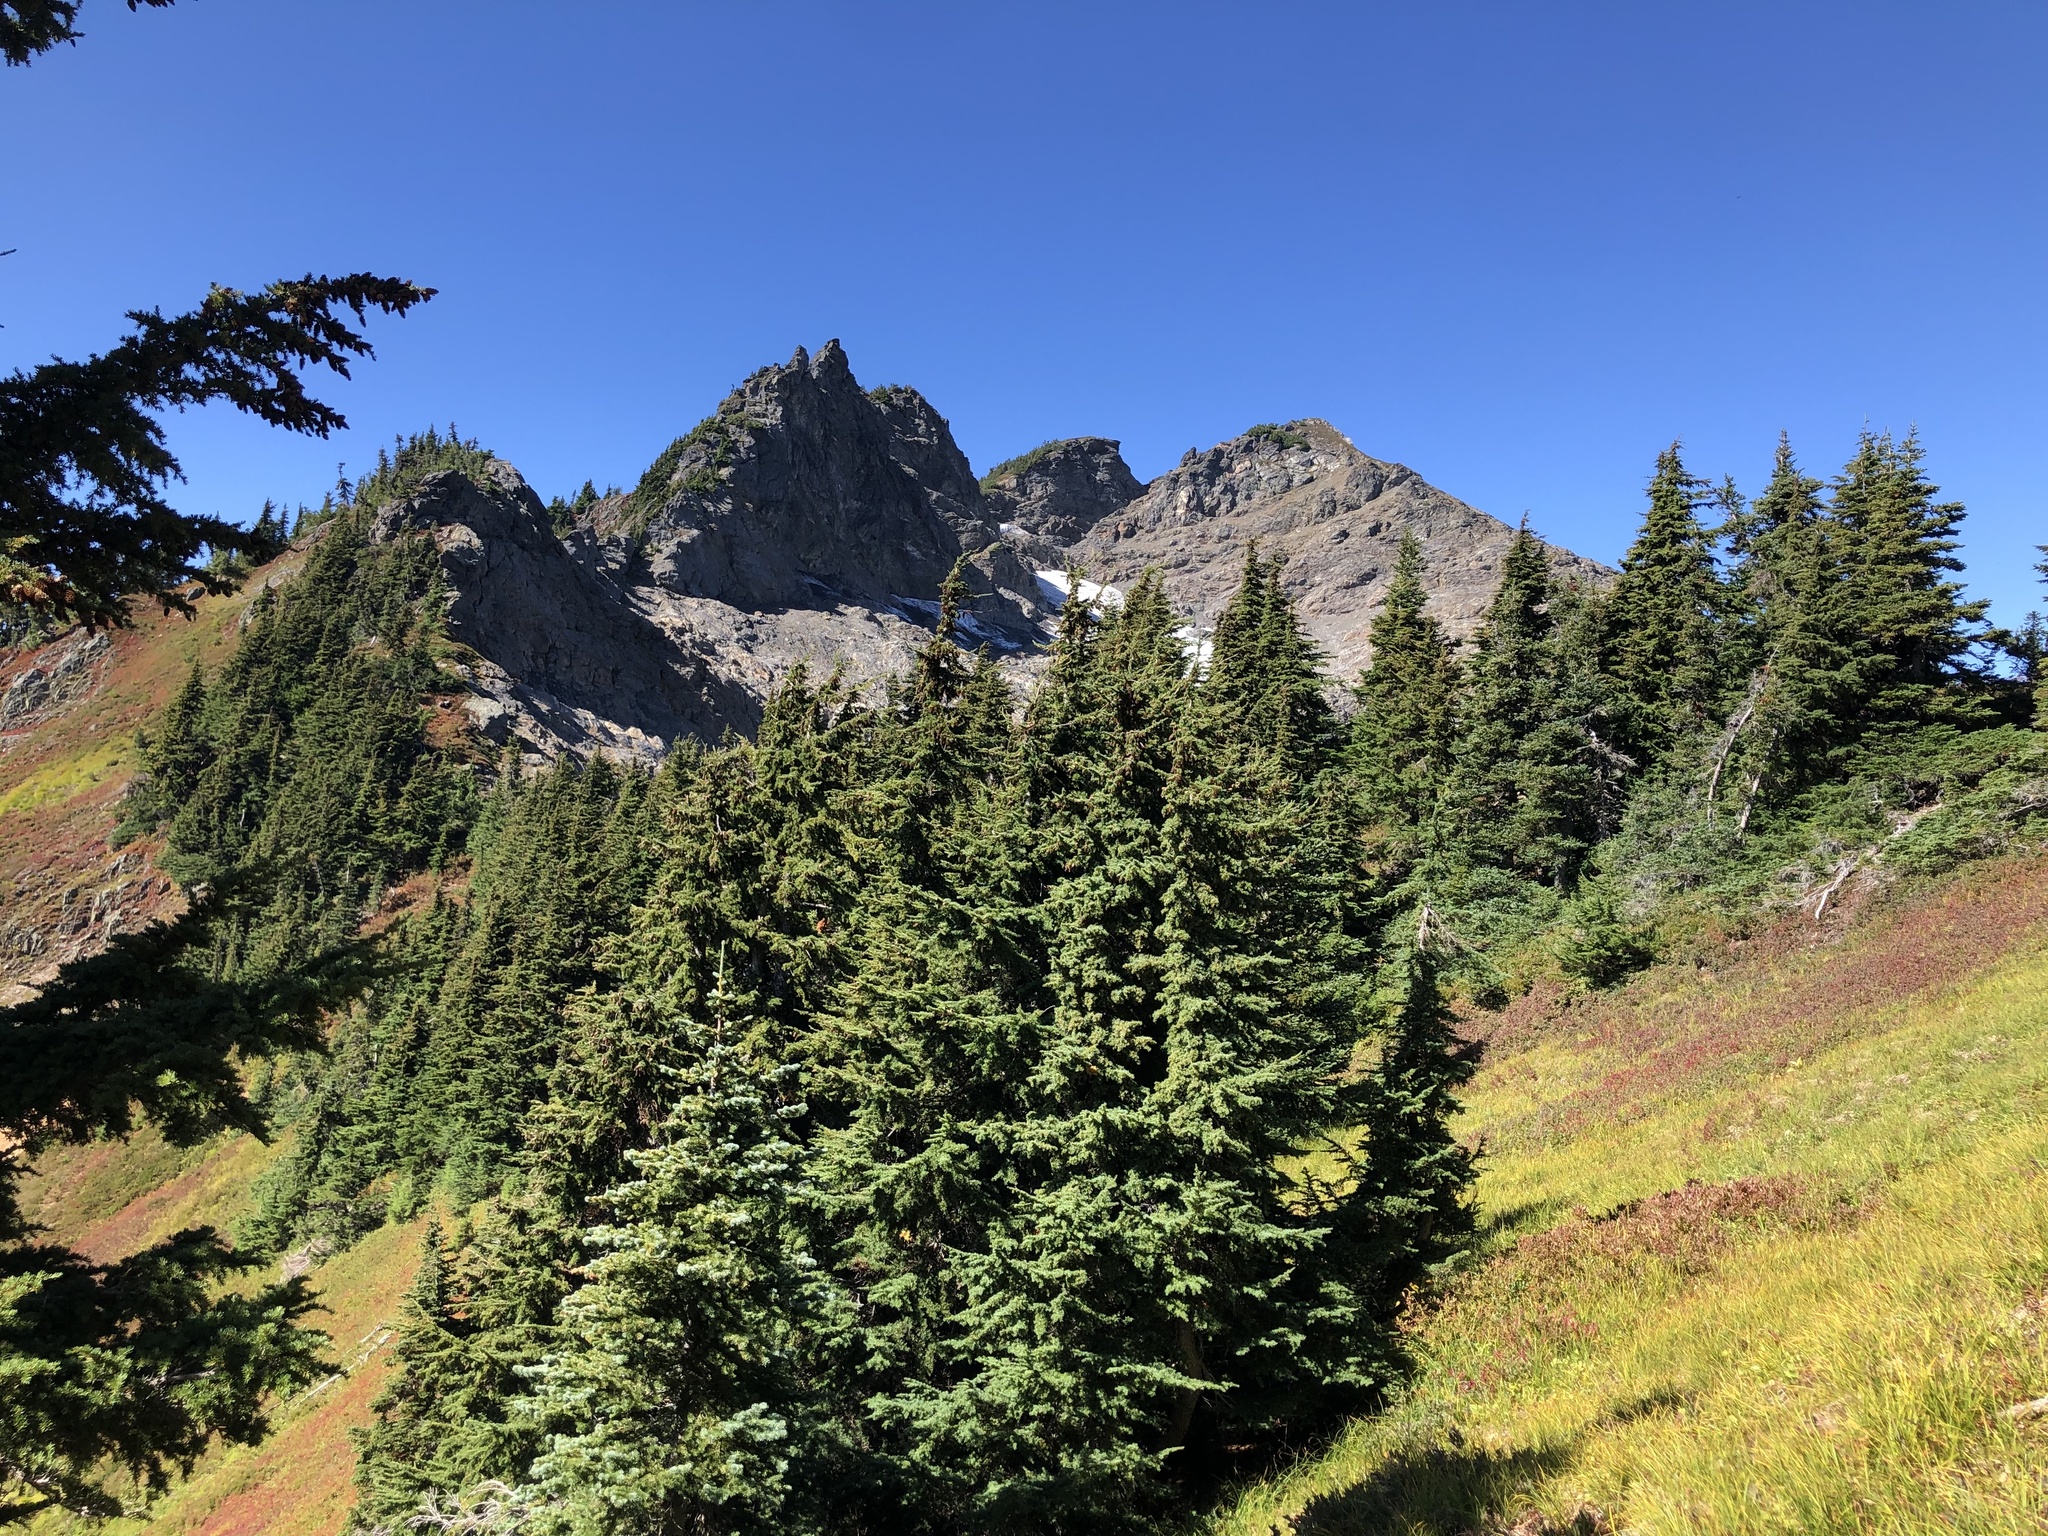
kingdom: Plantae
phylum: Tracheophyta
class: Pinopsida
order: Pinales
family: Pinaceae
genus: Tsuga
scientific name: Tsuga mertensiana
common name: Mountain hemlock
